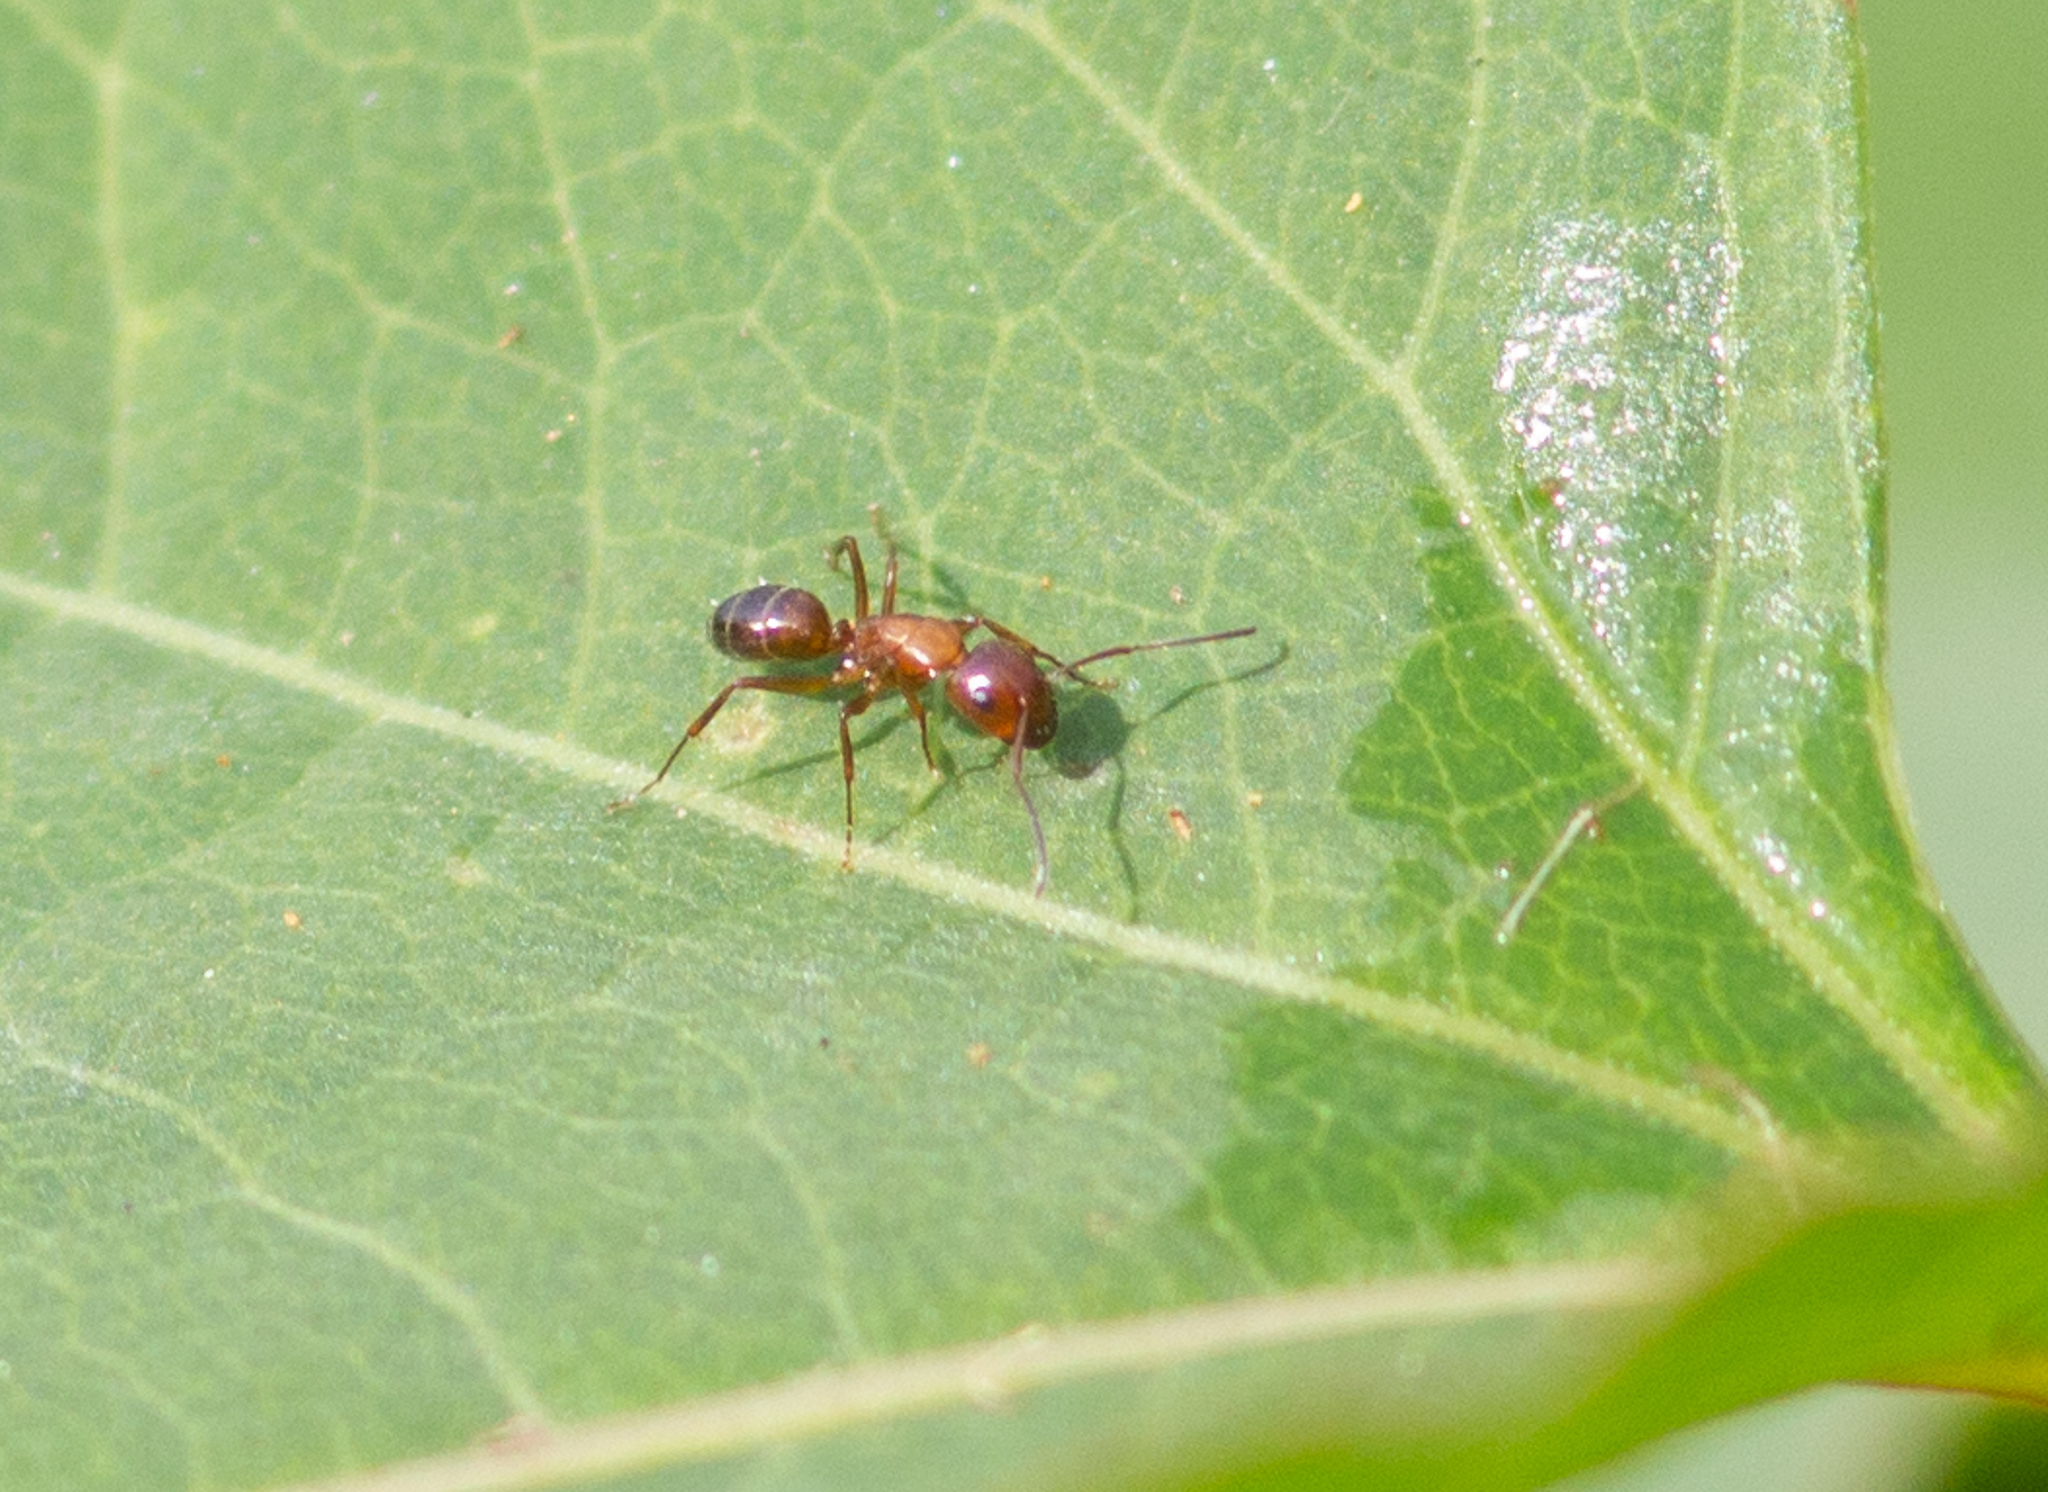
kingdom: Animalia
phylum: Arthropoda
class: Insecta
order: Hymenoptera
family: Formicidae
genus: Camponotus
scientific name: Camponotus nearcticus
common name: Smaller carpenter ant
